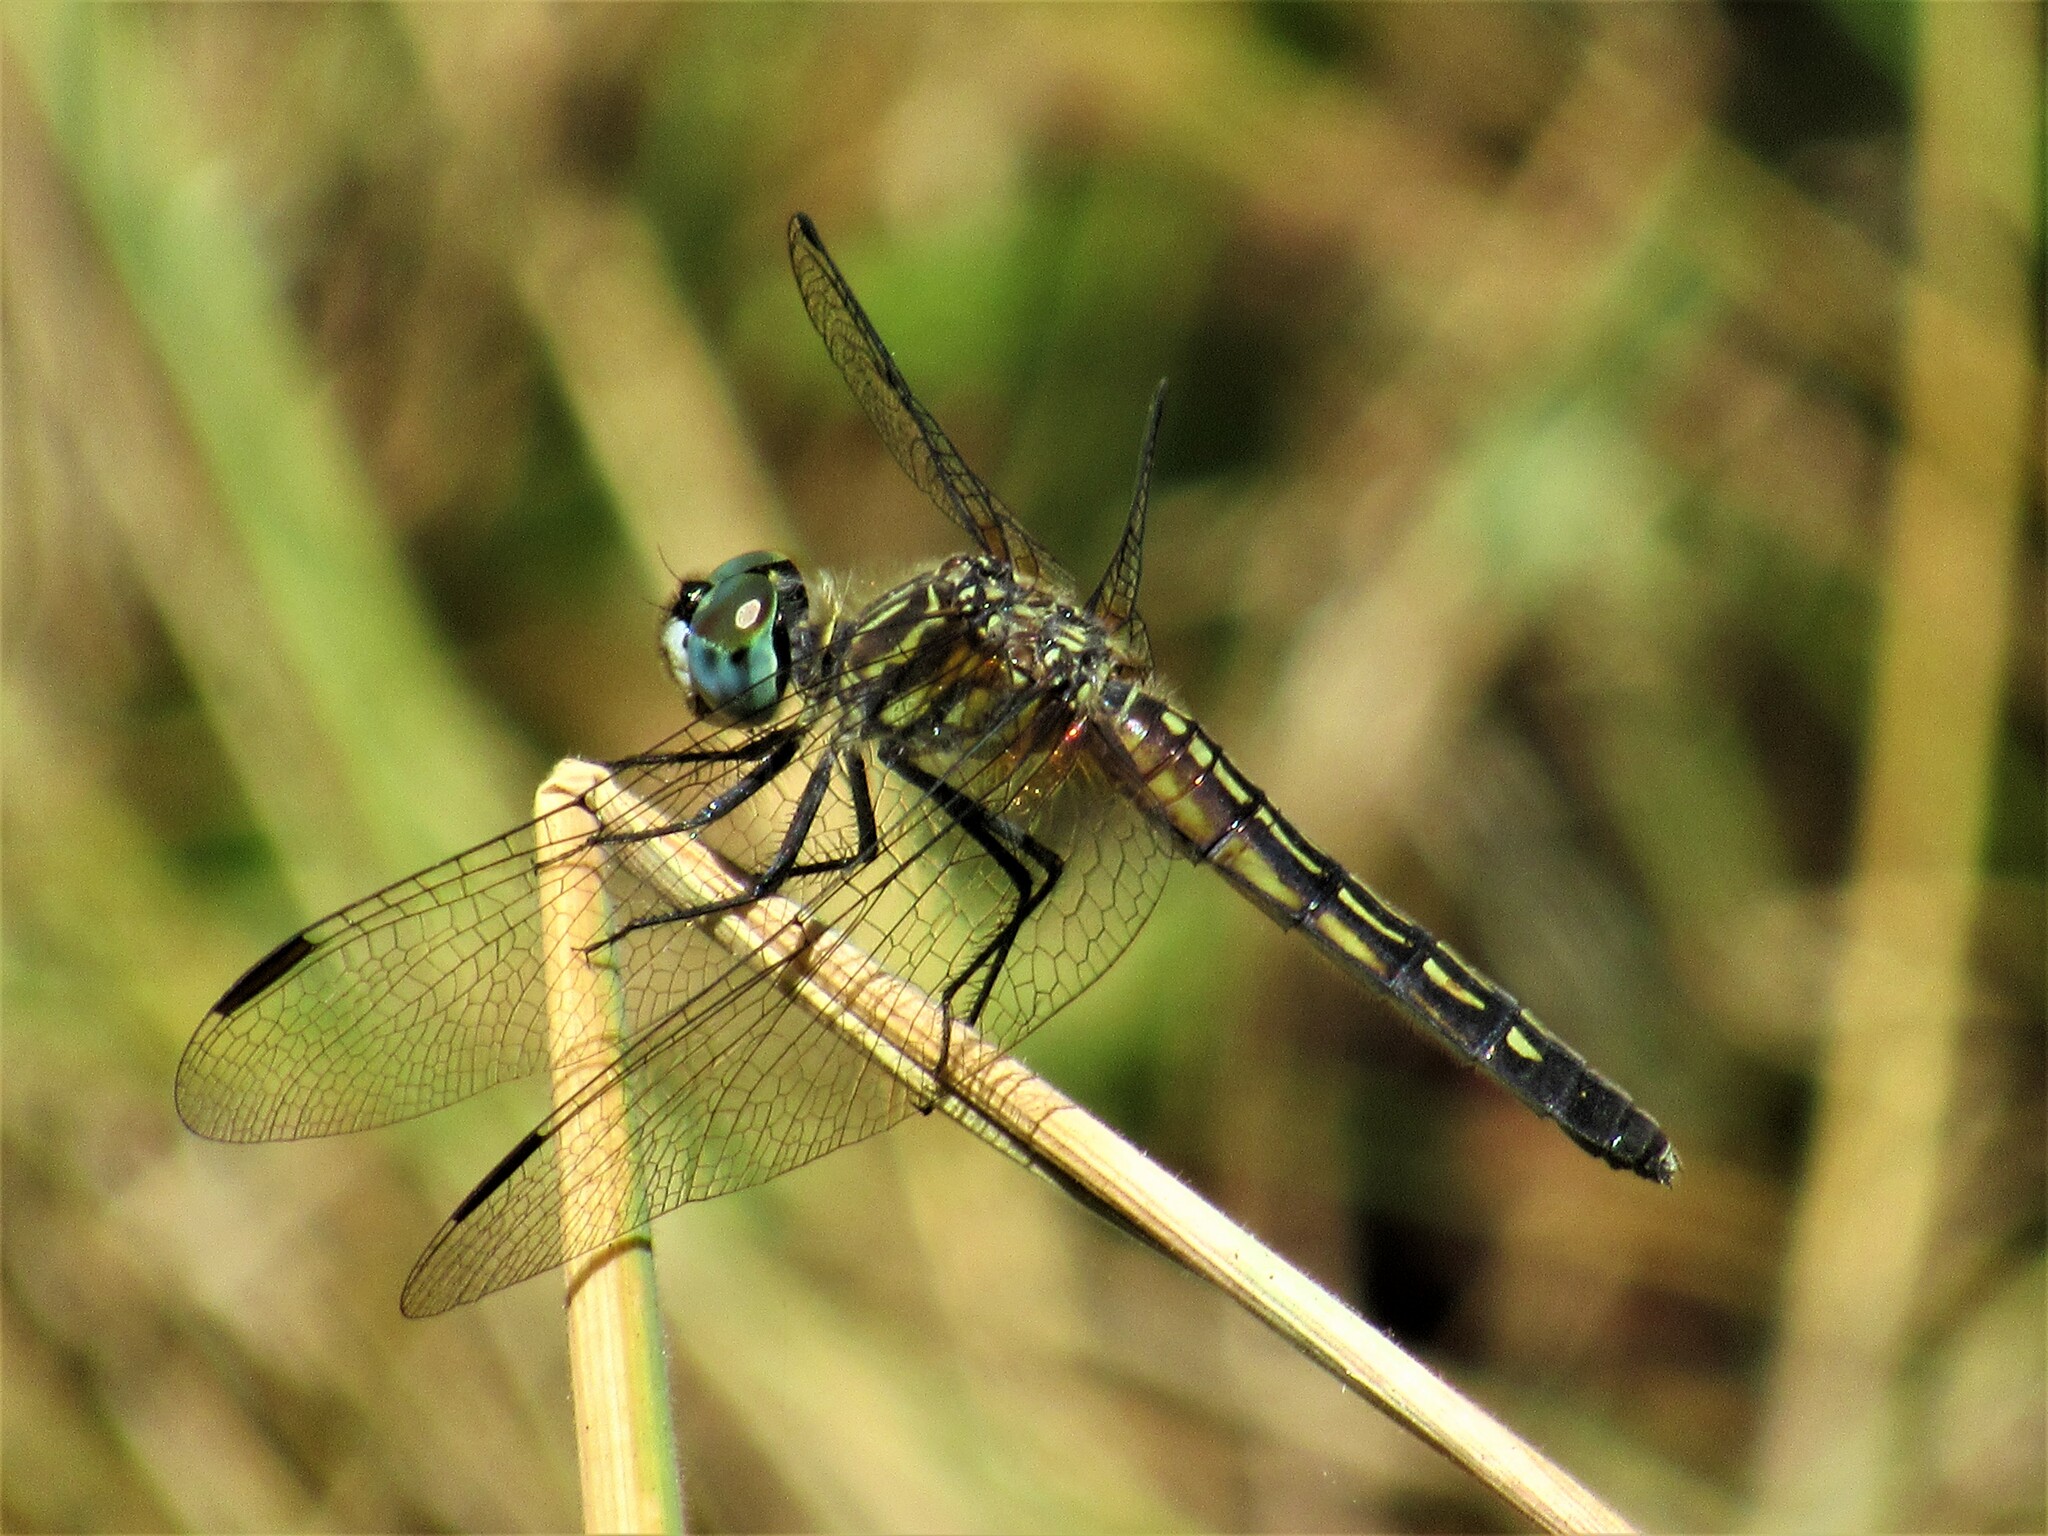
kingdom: Animalia
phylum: Arthropoda
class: Insecta
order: Odonata
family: Libellulidae
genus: Pachydiplax
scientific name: Pachydiplax longipennis
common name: Blue dasher
